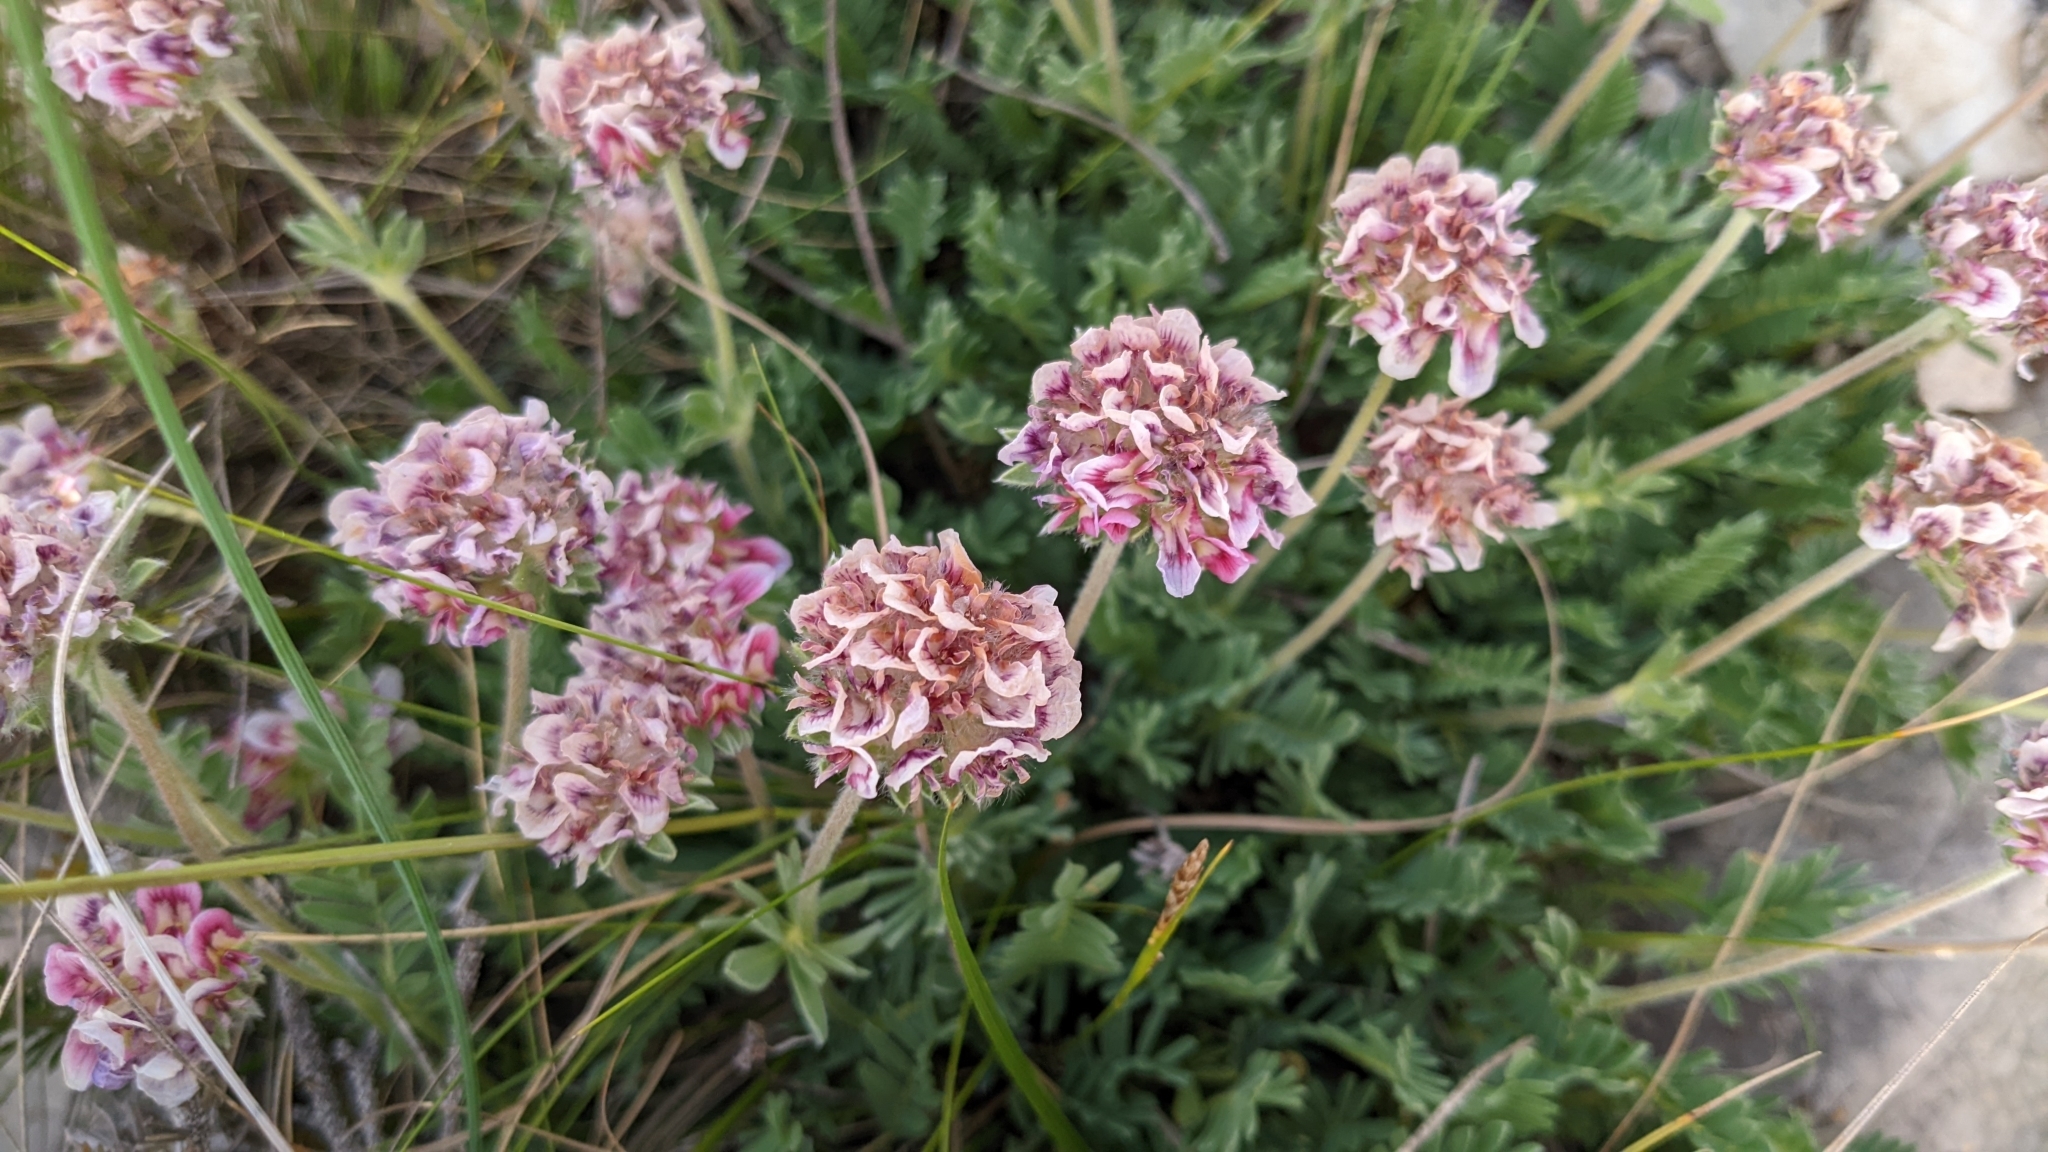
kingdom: Plantae
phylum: Tracheophyta
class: Magnoliopsida
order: Fabales
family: Fabaceae
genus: Anthyllis
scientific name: Anthyllis montana
